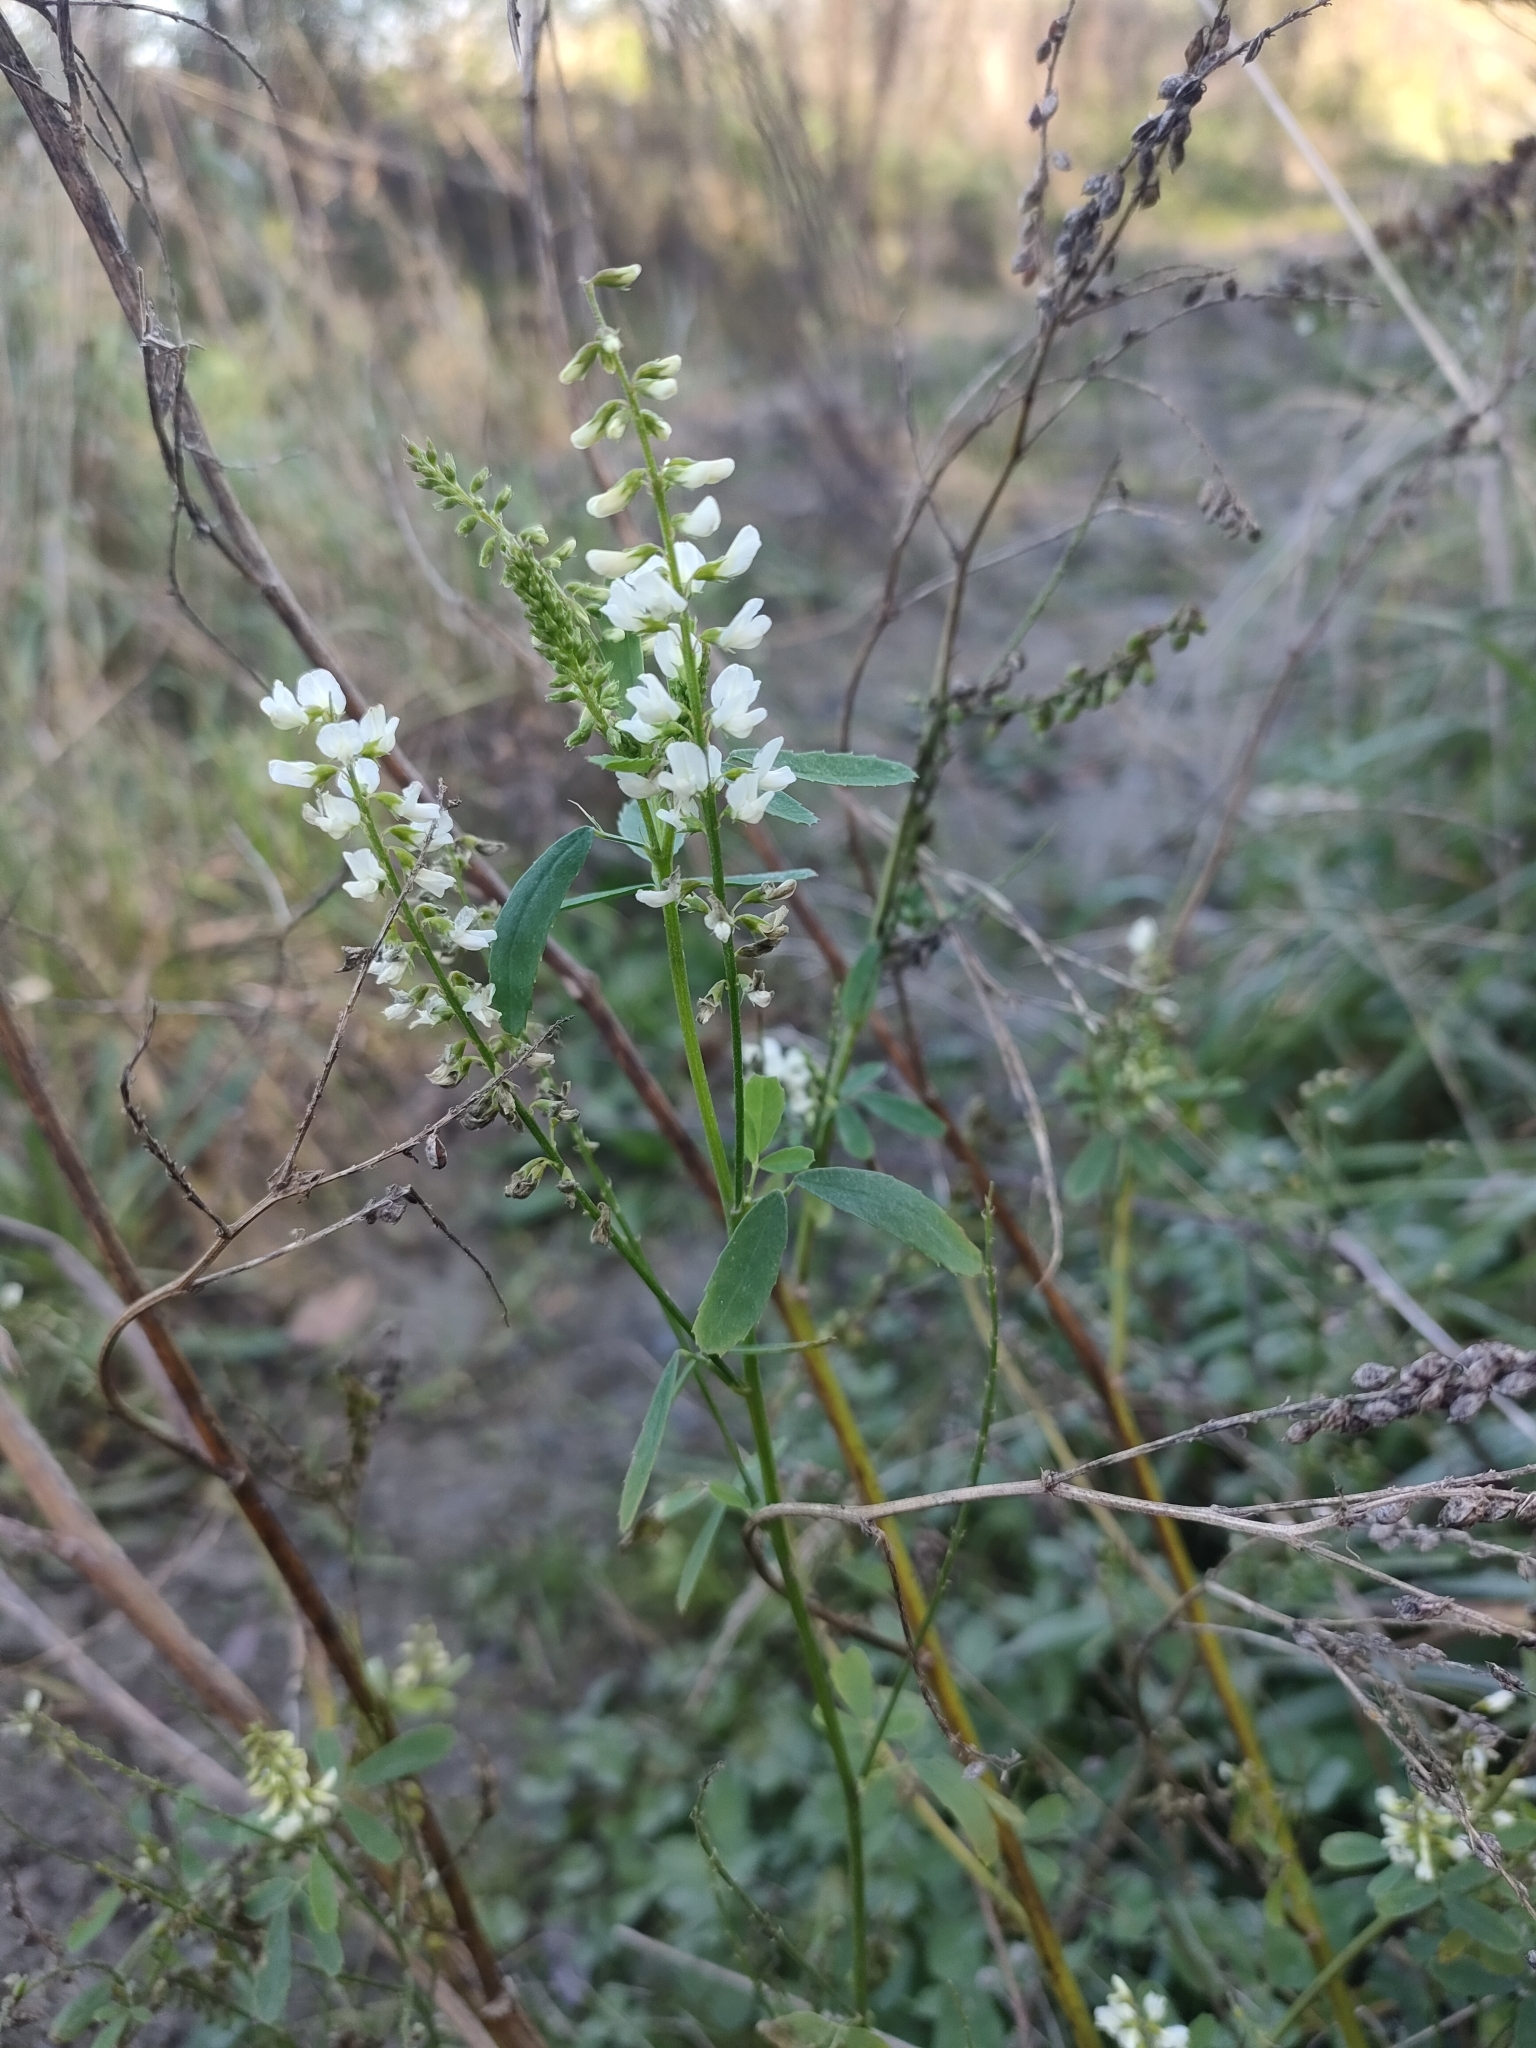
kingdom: Plantae
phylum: Tracheophyta
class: Magnoliopsida
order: Fabales
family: Fabaceae
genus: Melilotus
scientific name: Melilotus albus
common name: White melilot
